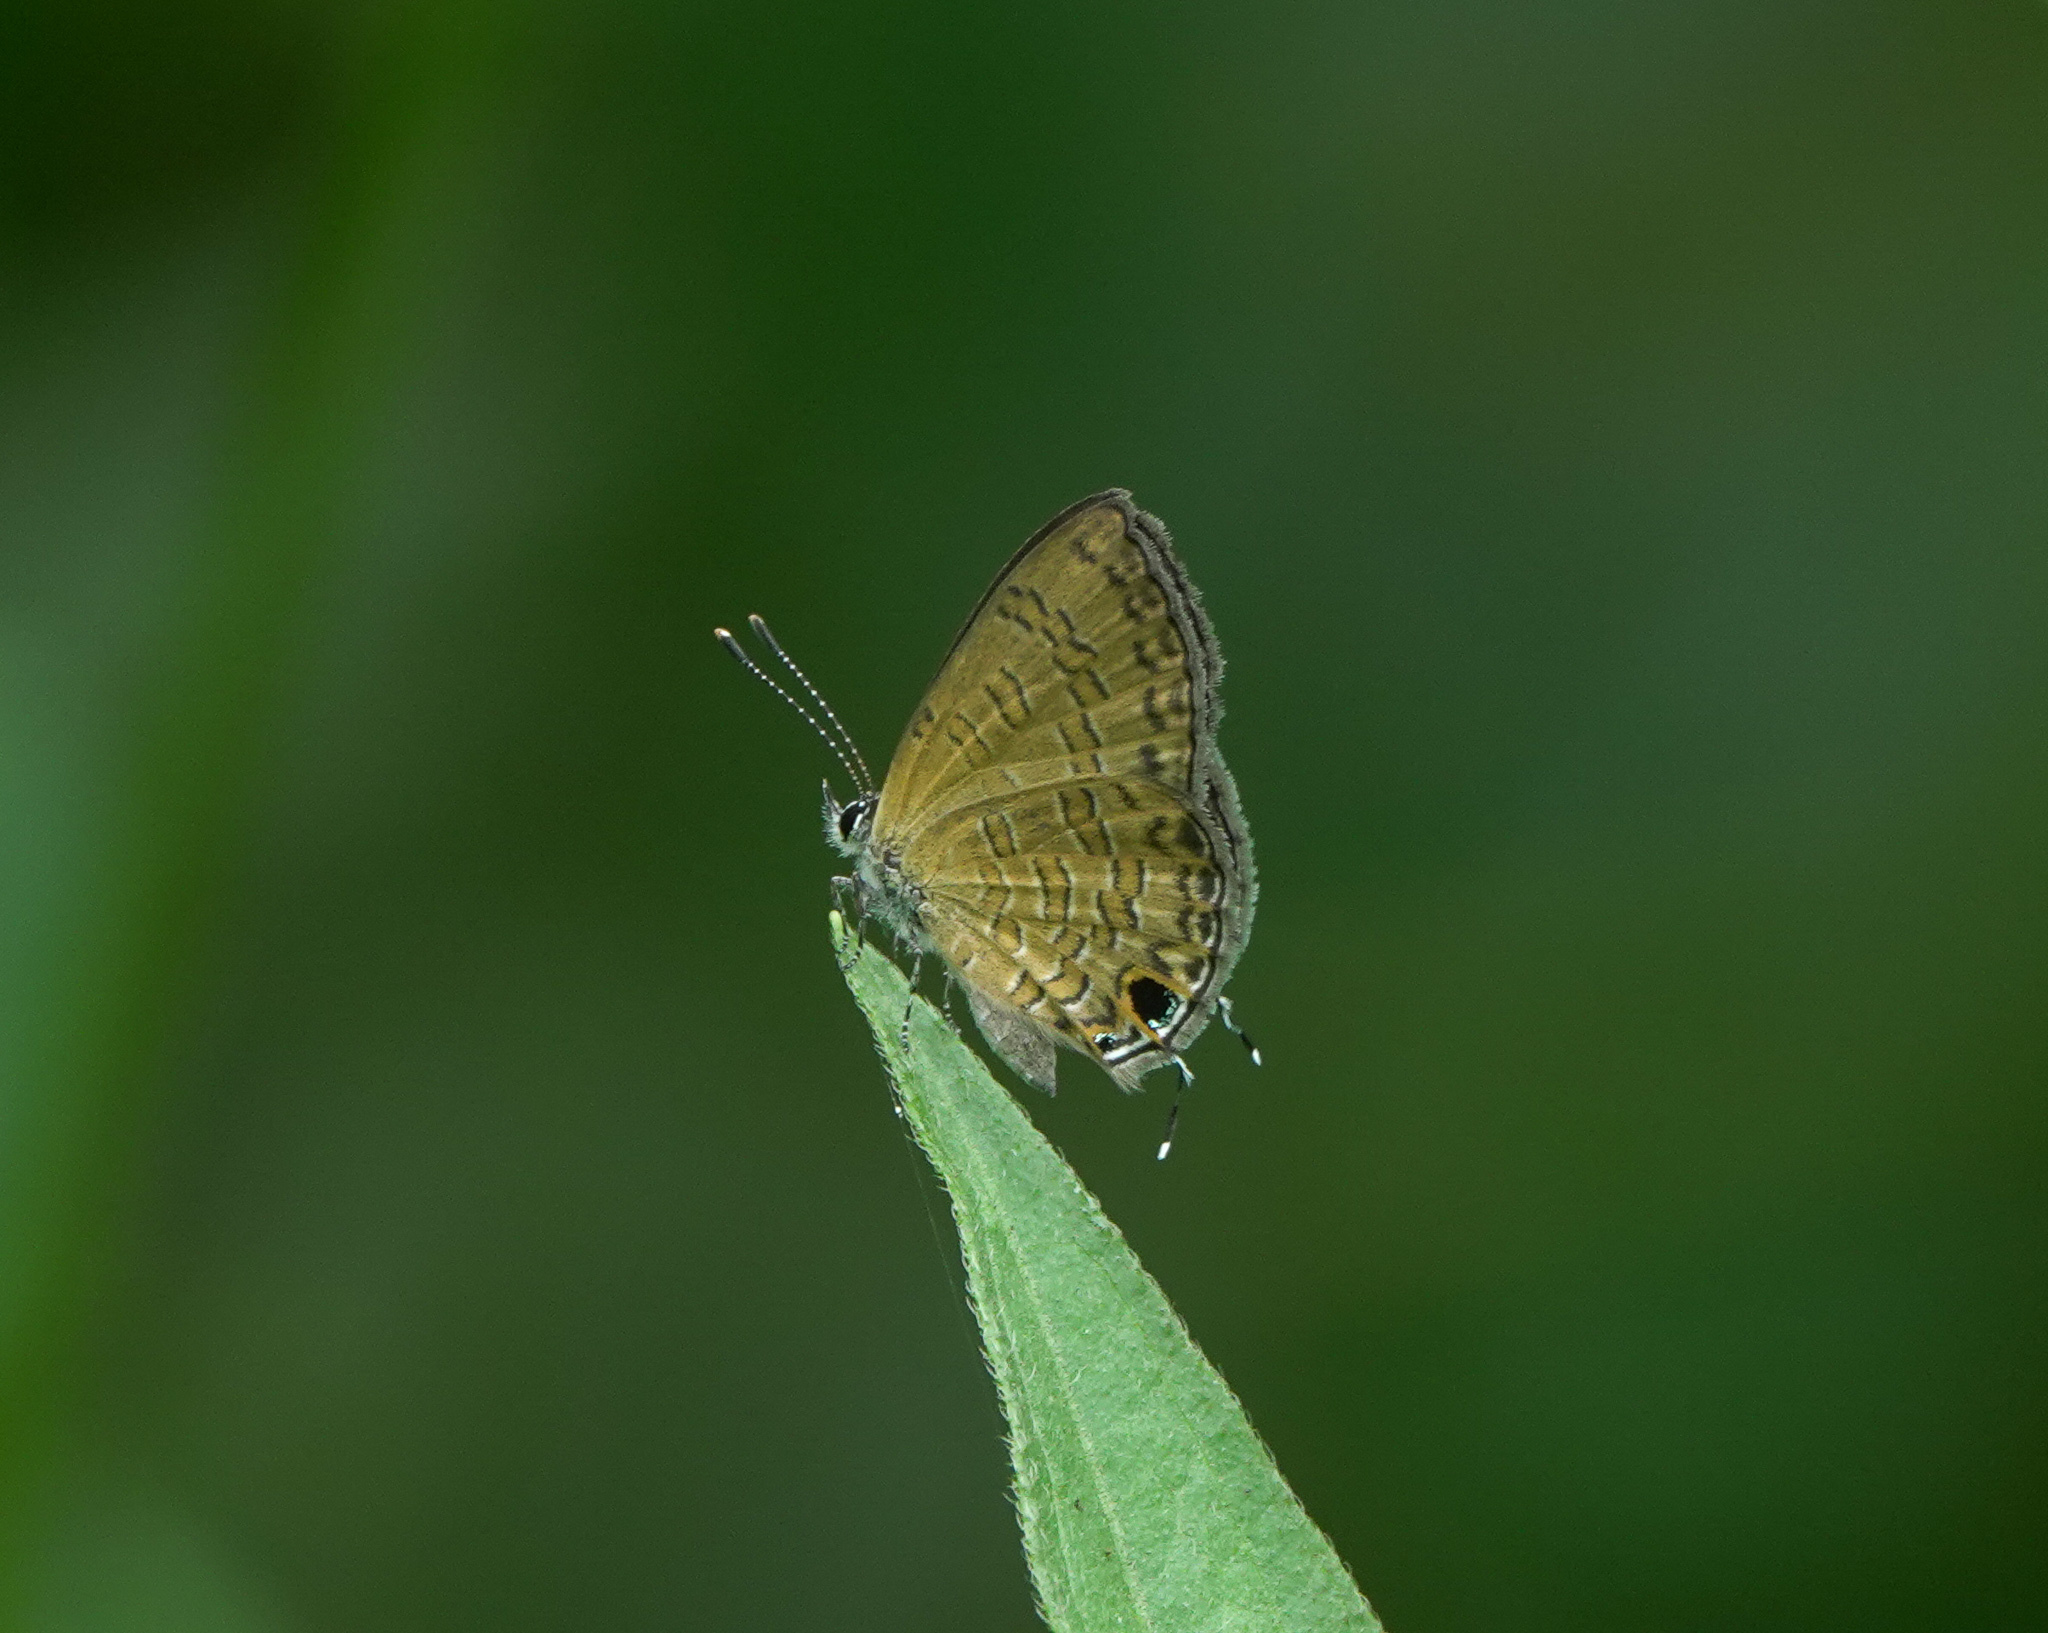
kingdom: Animalia
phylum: Arthropoda
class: Insecta
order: Lepidoptera
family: Lycaenidae
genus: Prosotas
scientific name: Prosotas nora
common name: Common line blue
